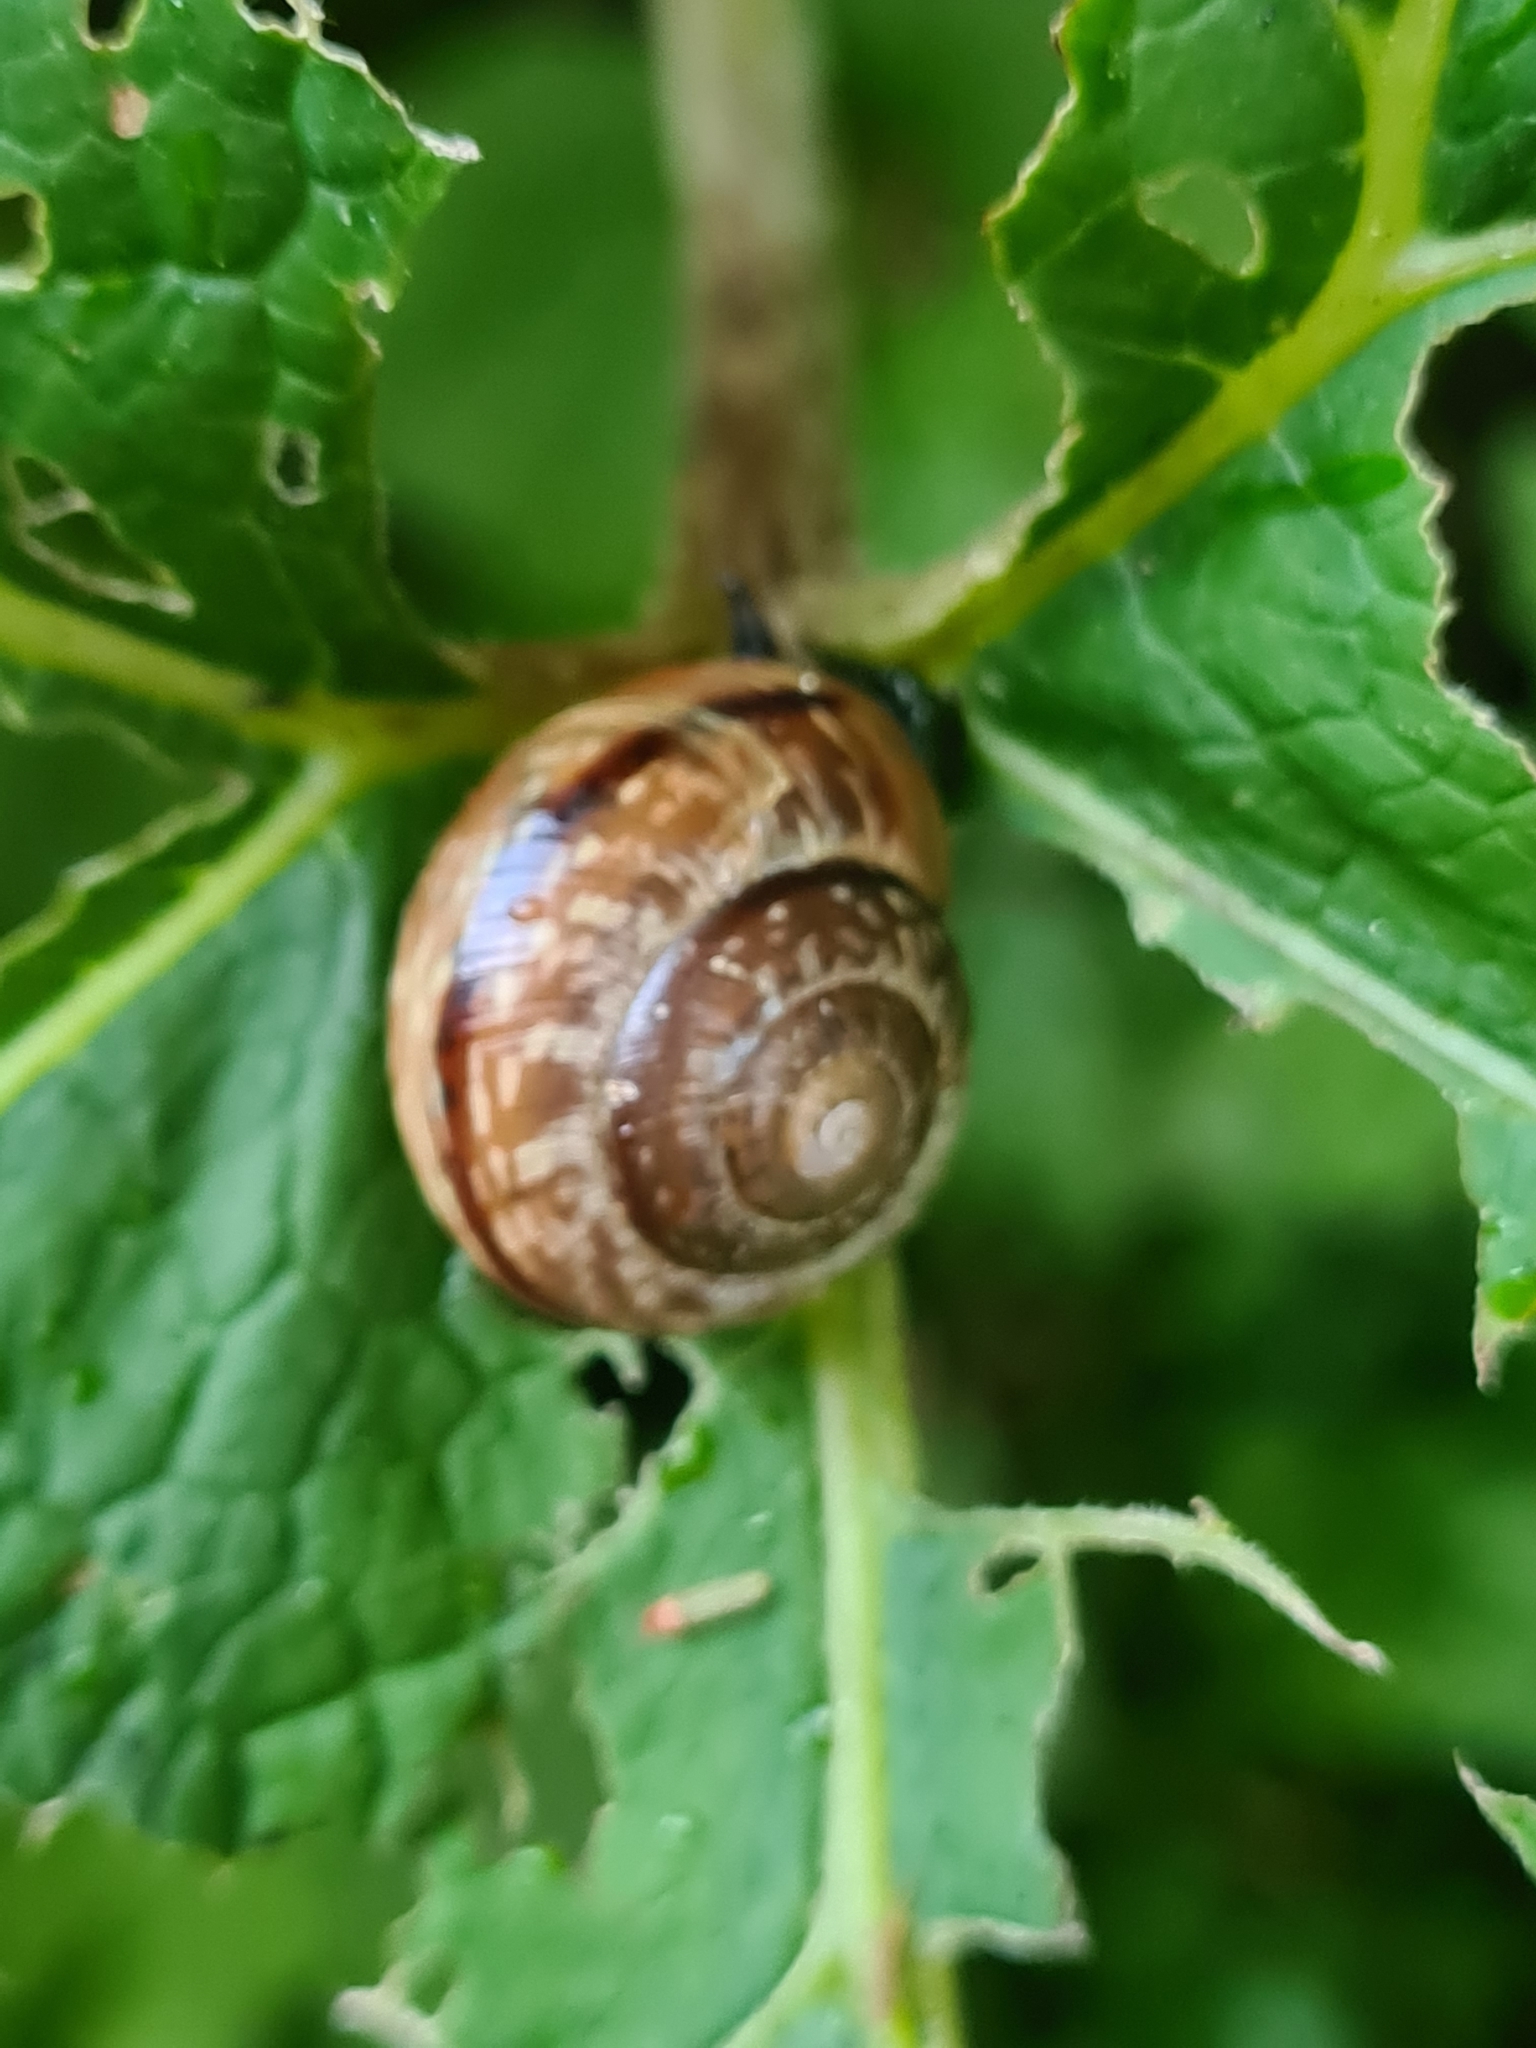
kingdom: Animalia
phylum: Mollusca
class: Gastropoda
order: Stylommatophora
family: Helicidae
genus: Arianta
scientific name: Arianta arbustorum
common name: Copse snail
